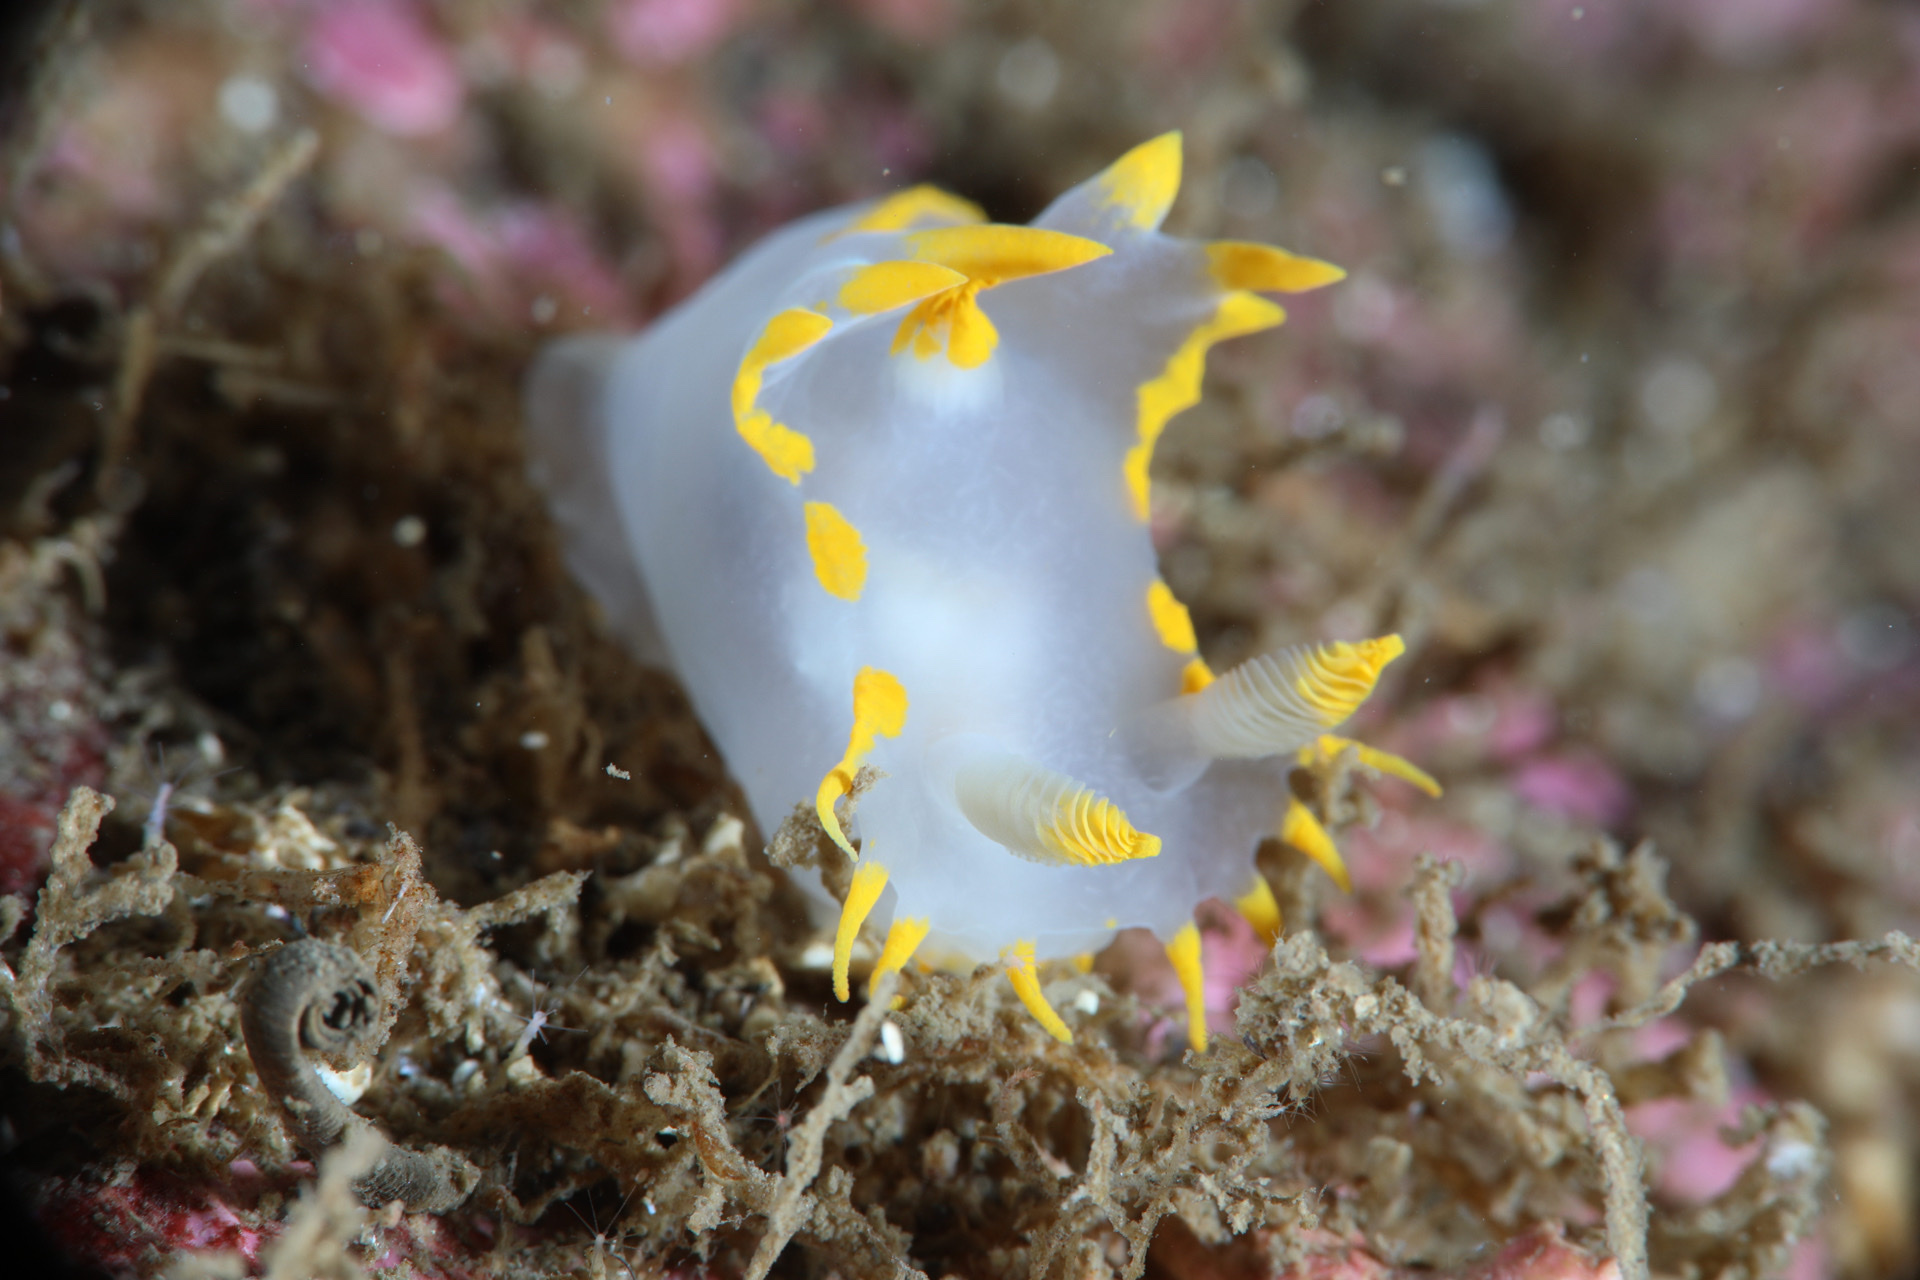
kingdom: Animalia
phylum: Mollusca
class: Gastropoda
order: Nudibranchia
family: Polyceridae
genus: Polycera
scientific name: Polycera faeroensis
